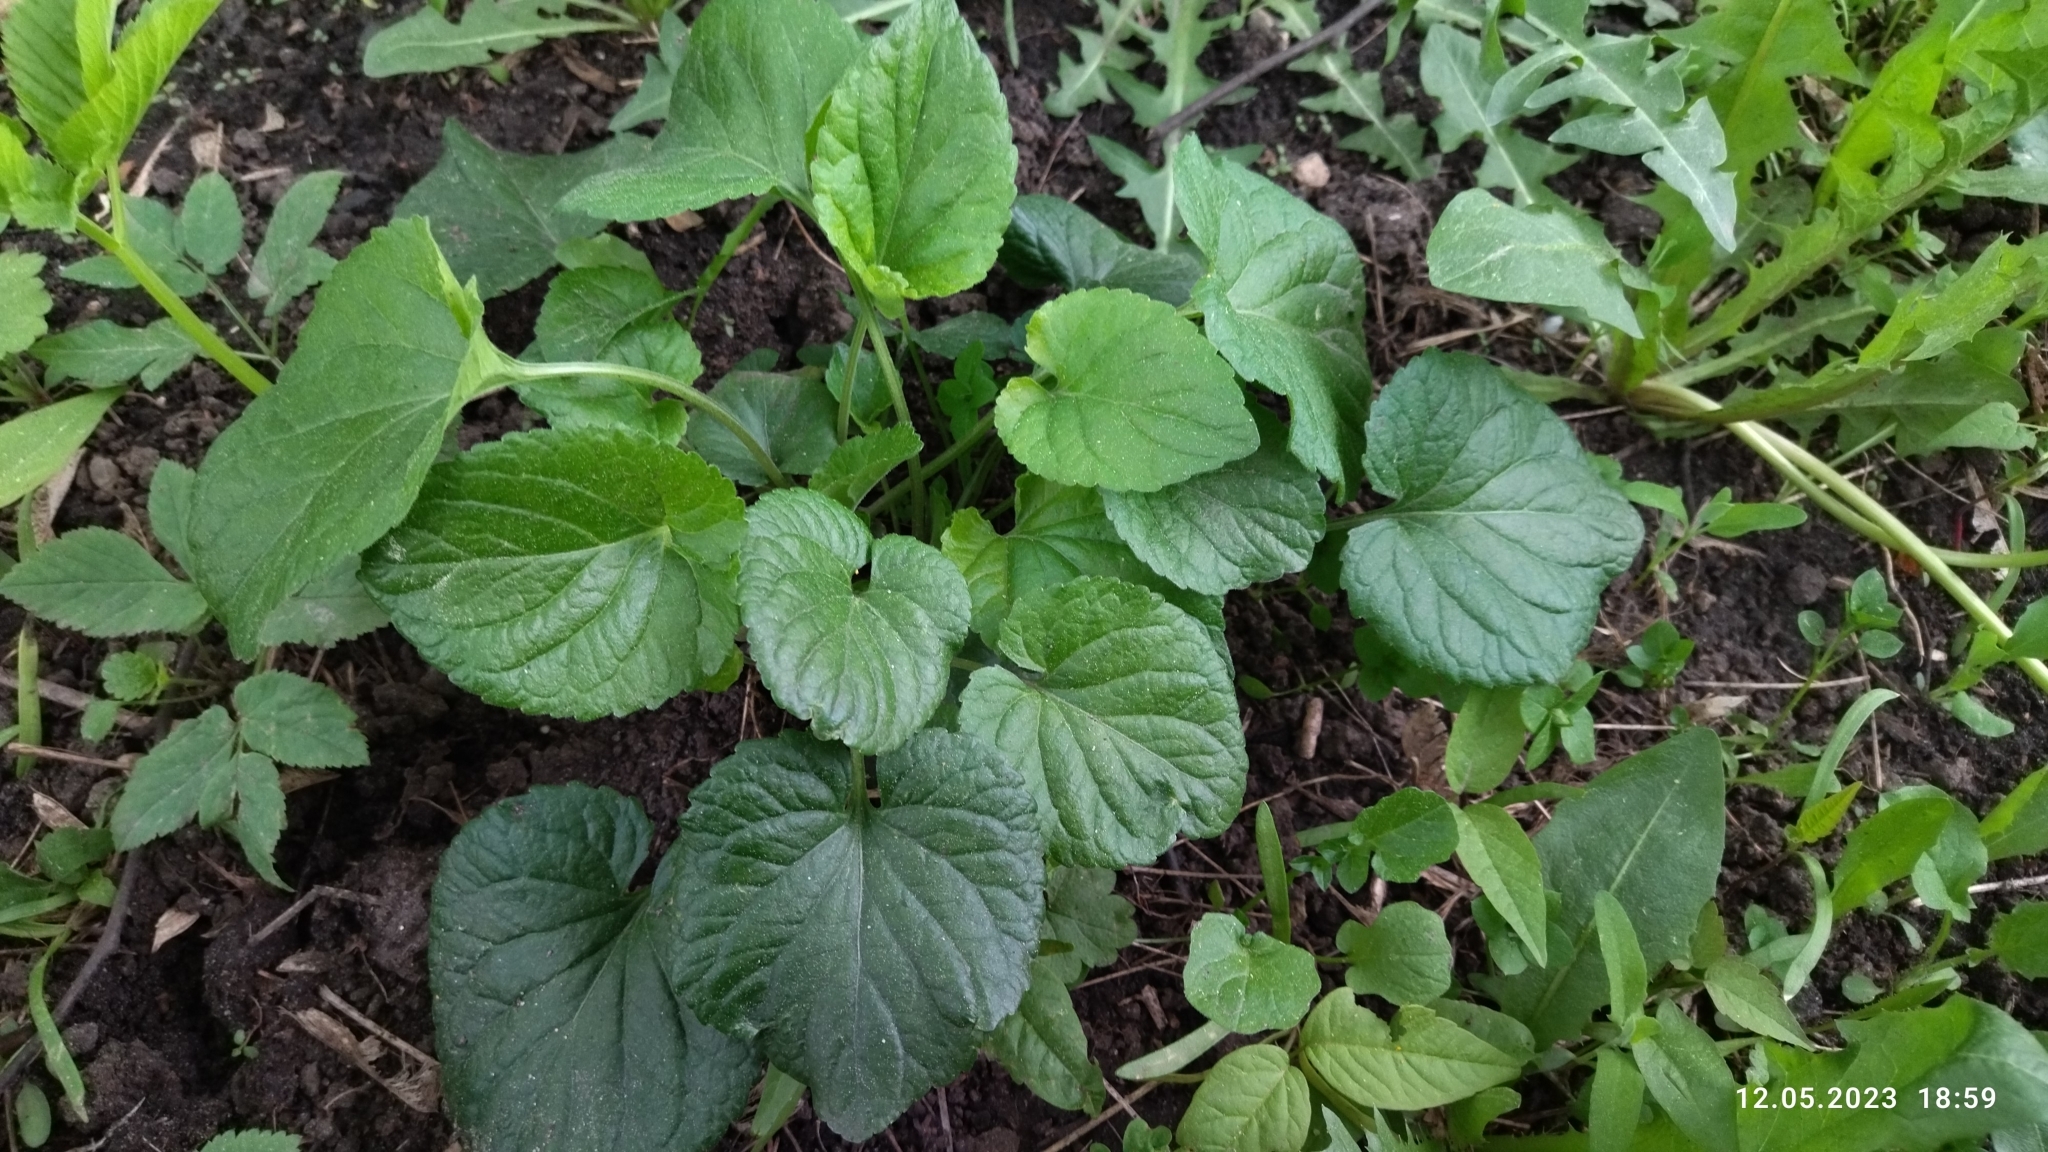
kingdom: Plantae
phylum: Tracheophyta
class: Magnoliopsida
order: Malpighiales
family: Violaceae
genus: Viola
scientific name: Viola odorata
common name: Sweet violet
